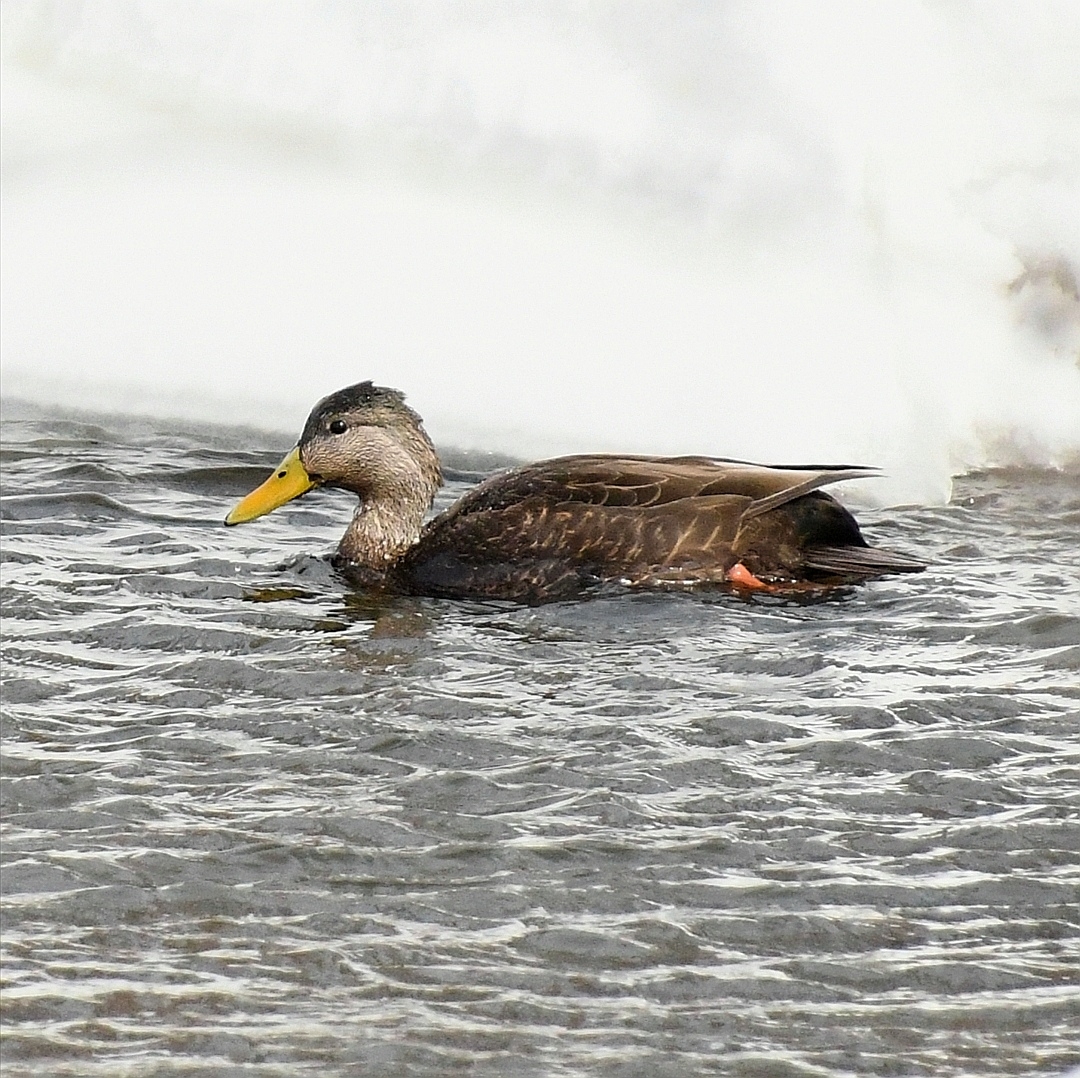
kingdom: Animalia
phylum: Chordata
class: Aves
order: Anseriformes
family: Anatidae
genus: Anas
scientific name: Anas platyrhynchos
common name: Mallard
